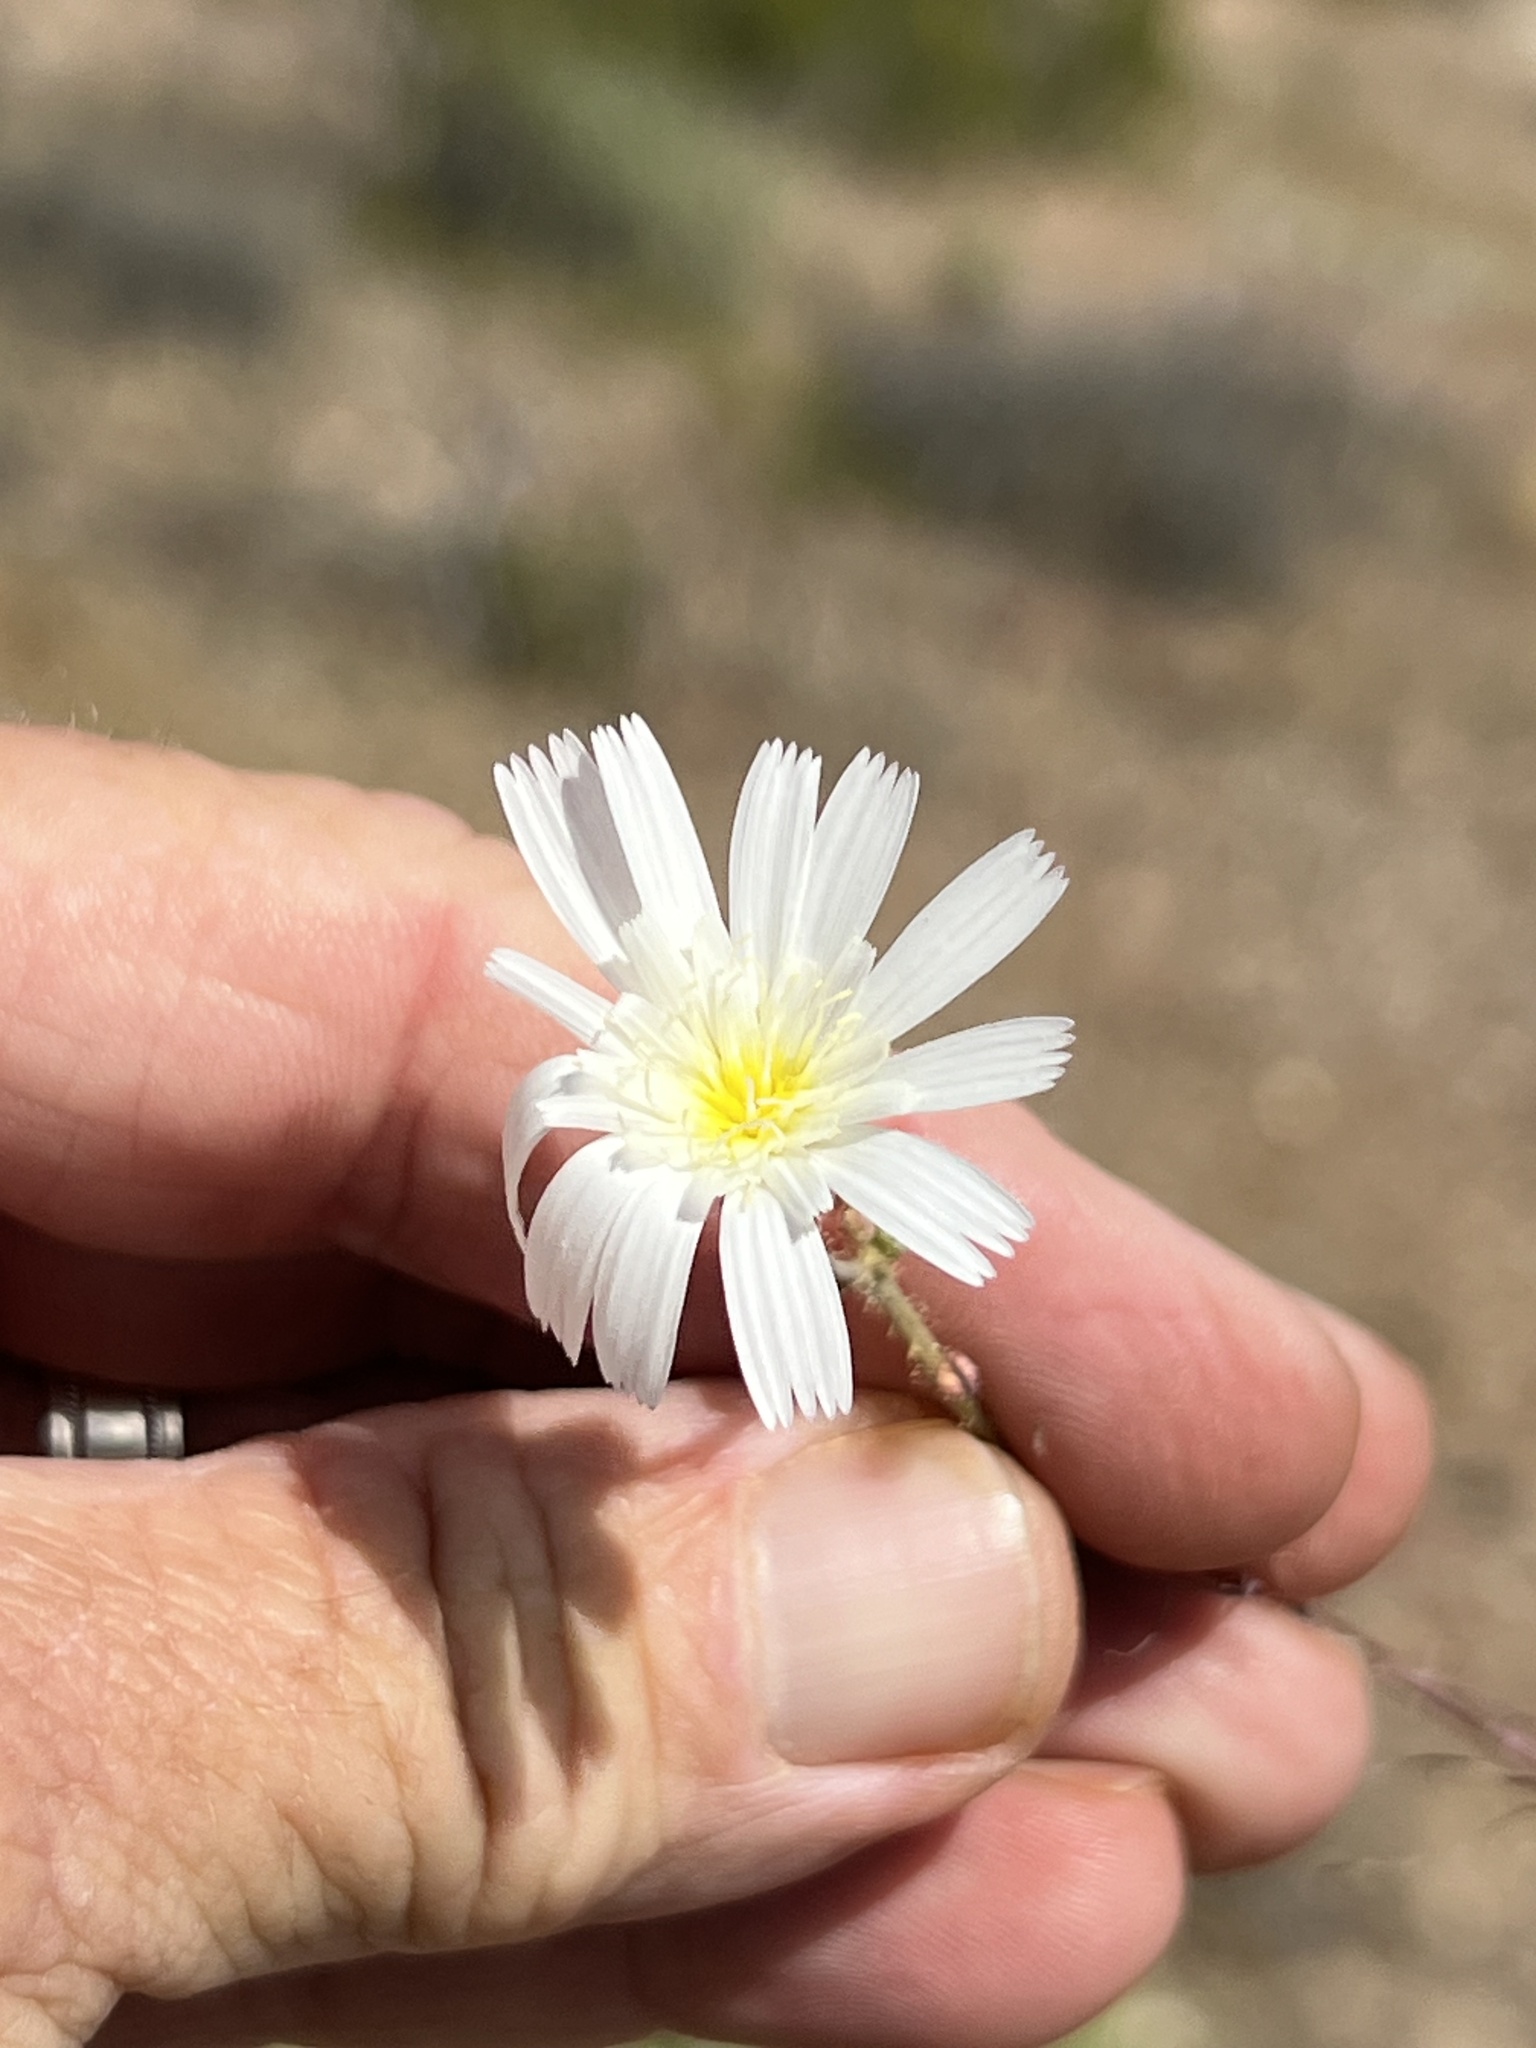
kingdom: Plantae
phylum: Tracheophyta
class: Magnoliopsida
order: Asterales
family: Asteraceae
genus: Calycoseris
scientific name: Calycoseris wrightii
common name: White tackstem
